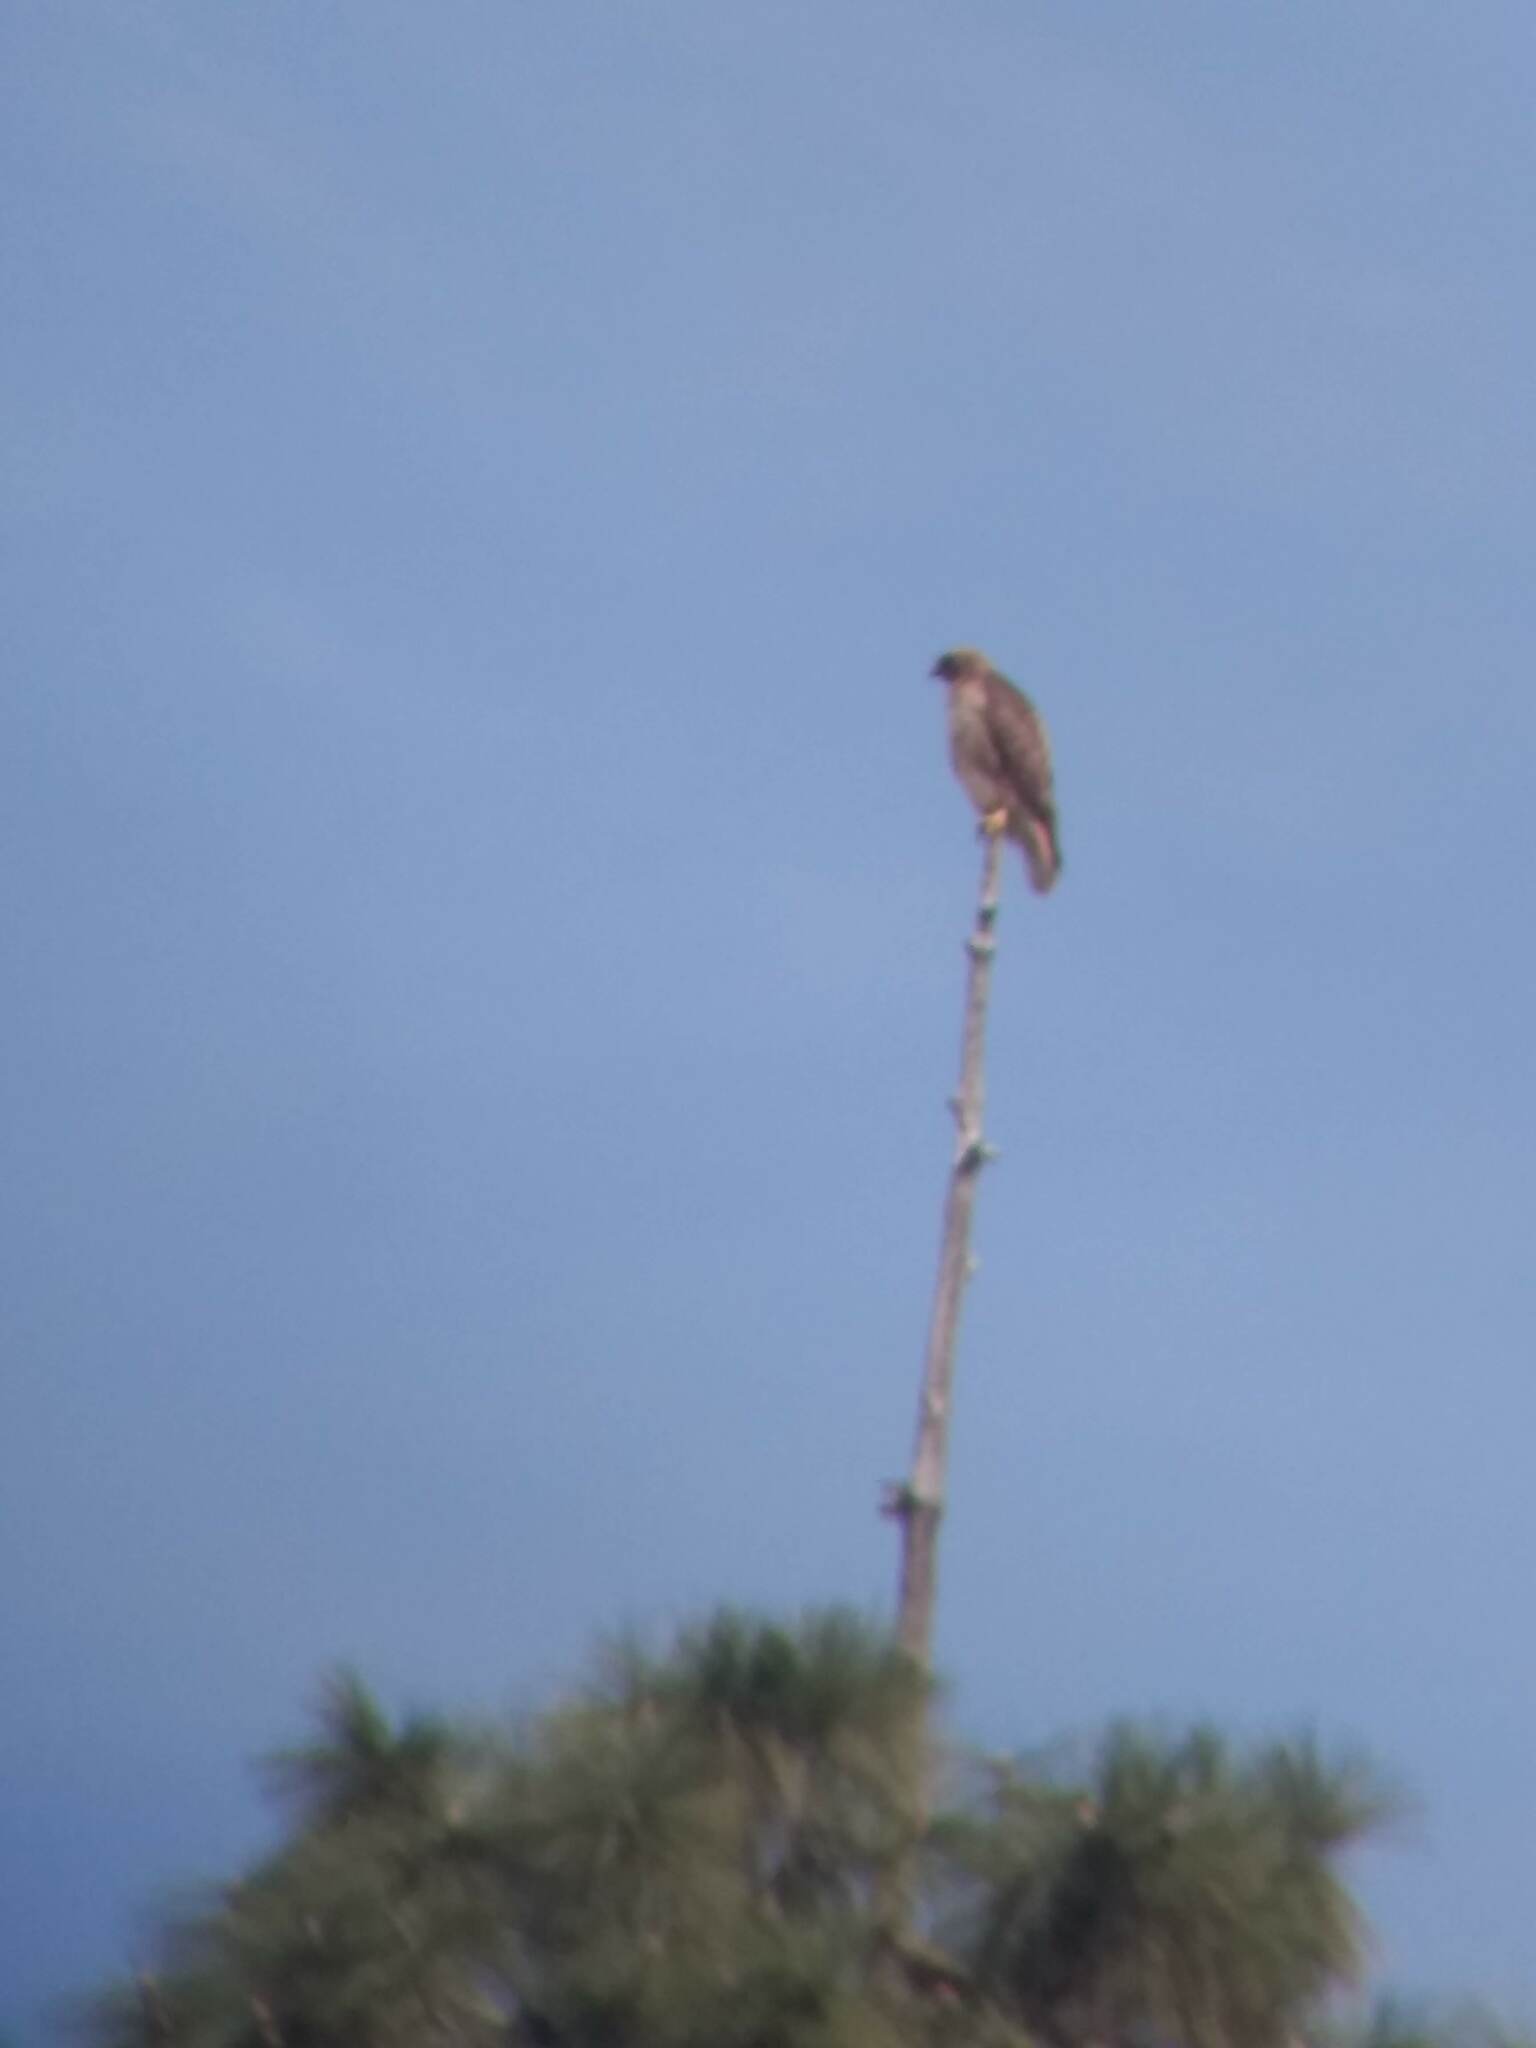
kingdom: Animalia
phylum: Chordata
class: Aves
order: Accipitriformes
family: Accipitridae
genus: Buteo
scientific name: Buteo jamaicensis
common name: Red-tailed hawk
